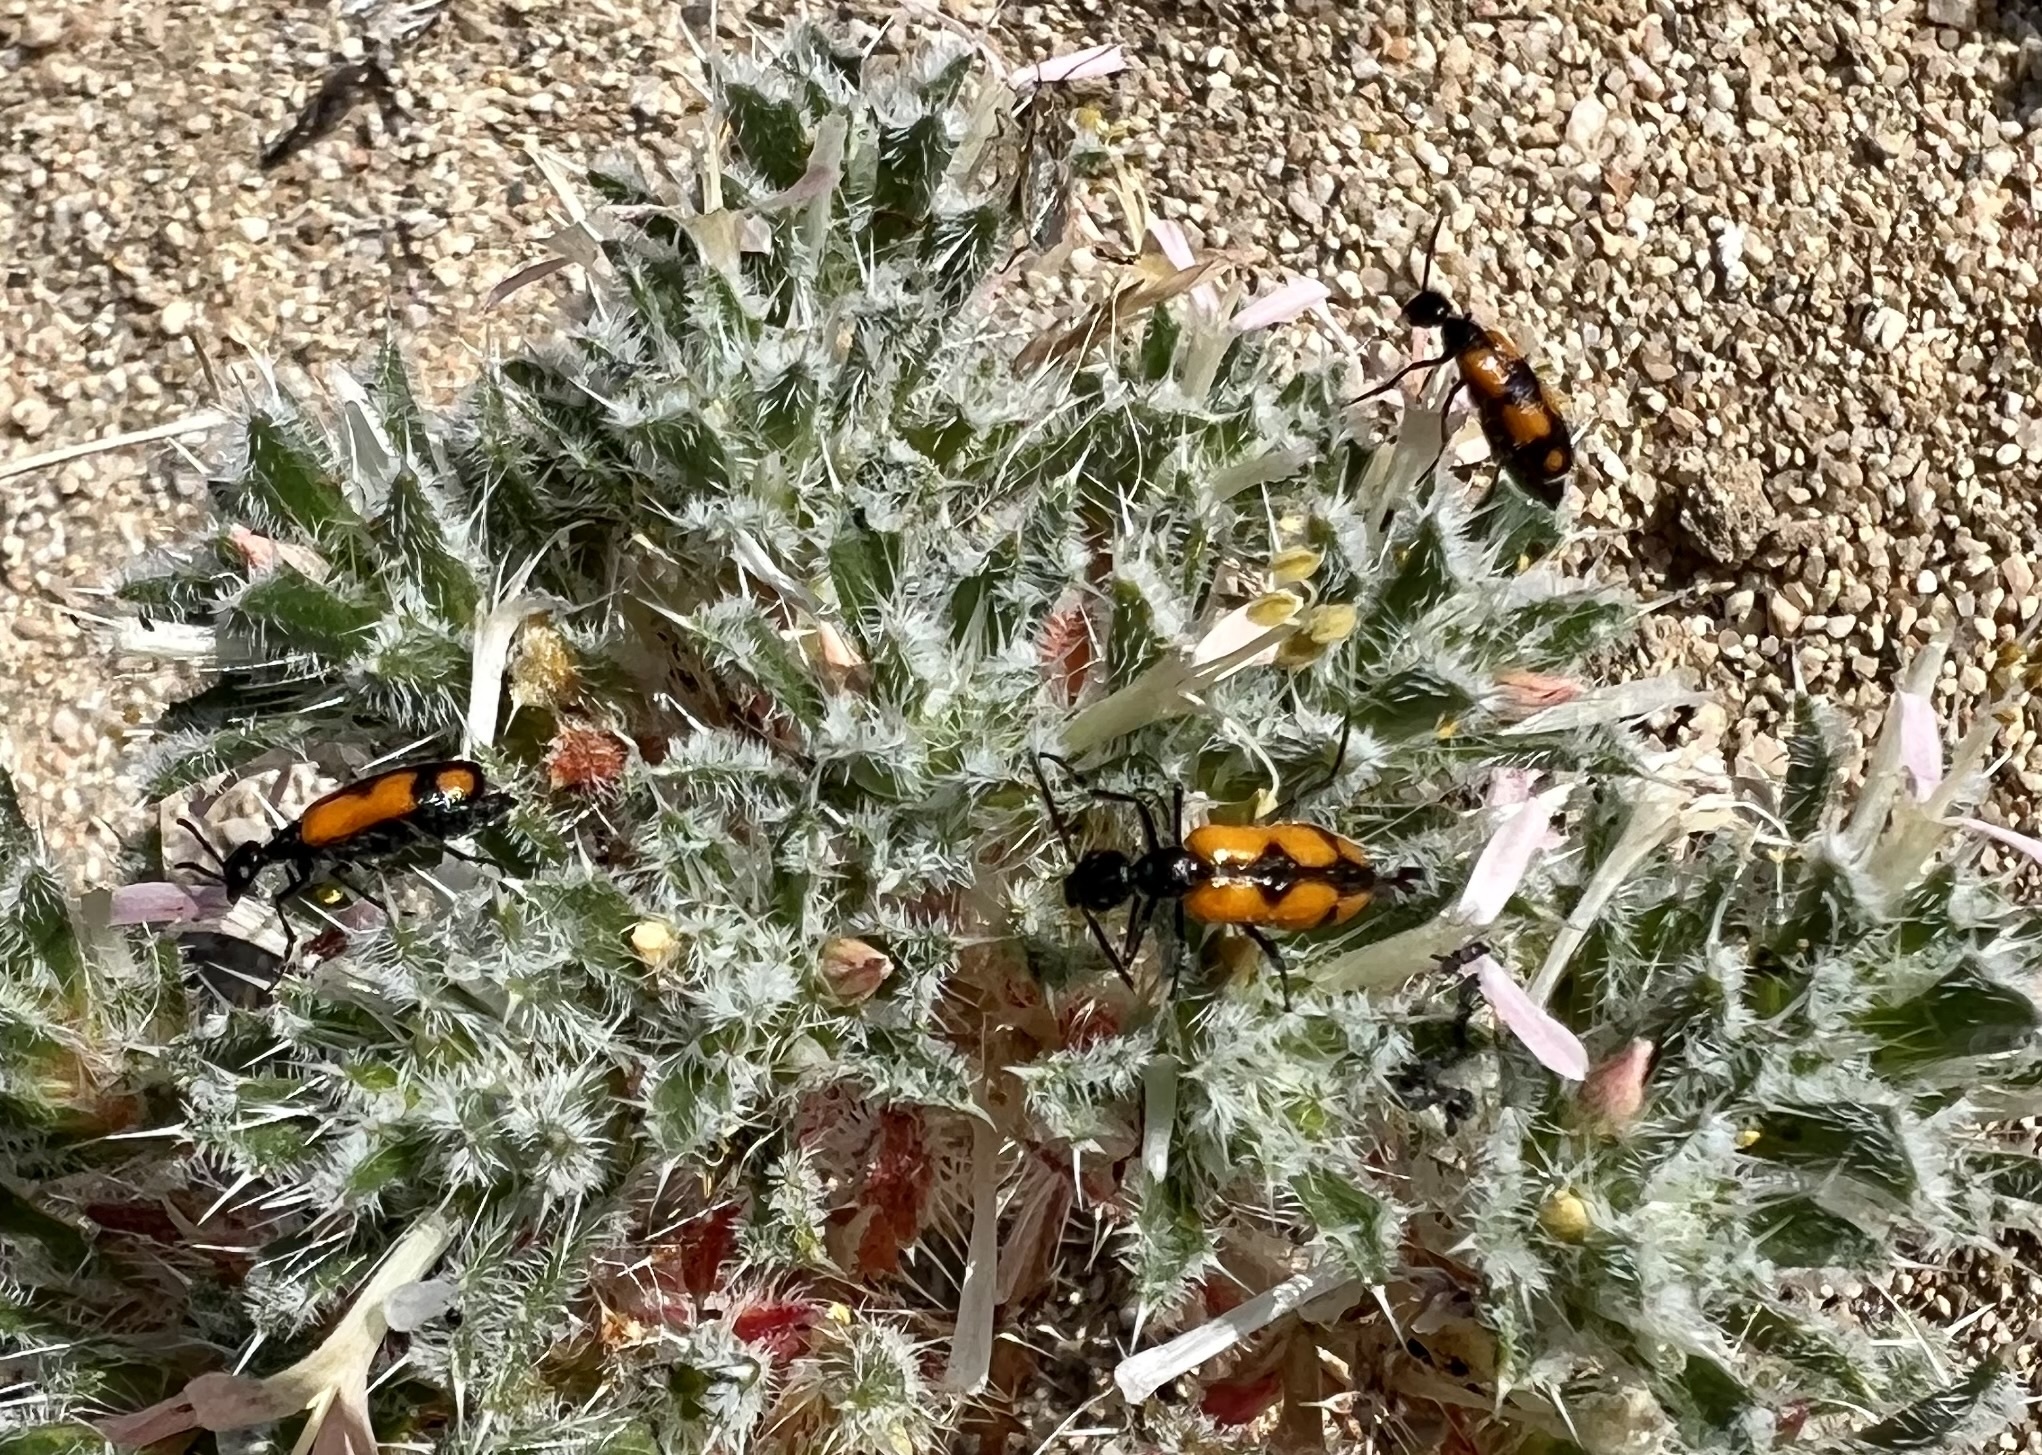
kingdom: Animalia
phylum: Arthropoda
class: Insecta
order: Coleoptera
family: Meloidae
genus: Eupompha
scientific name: Eupompha elegans
